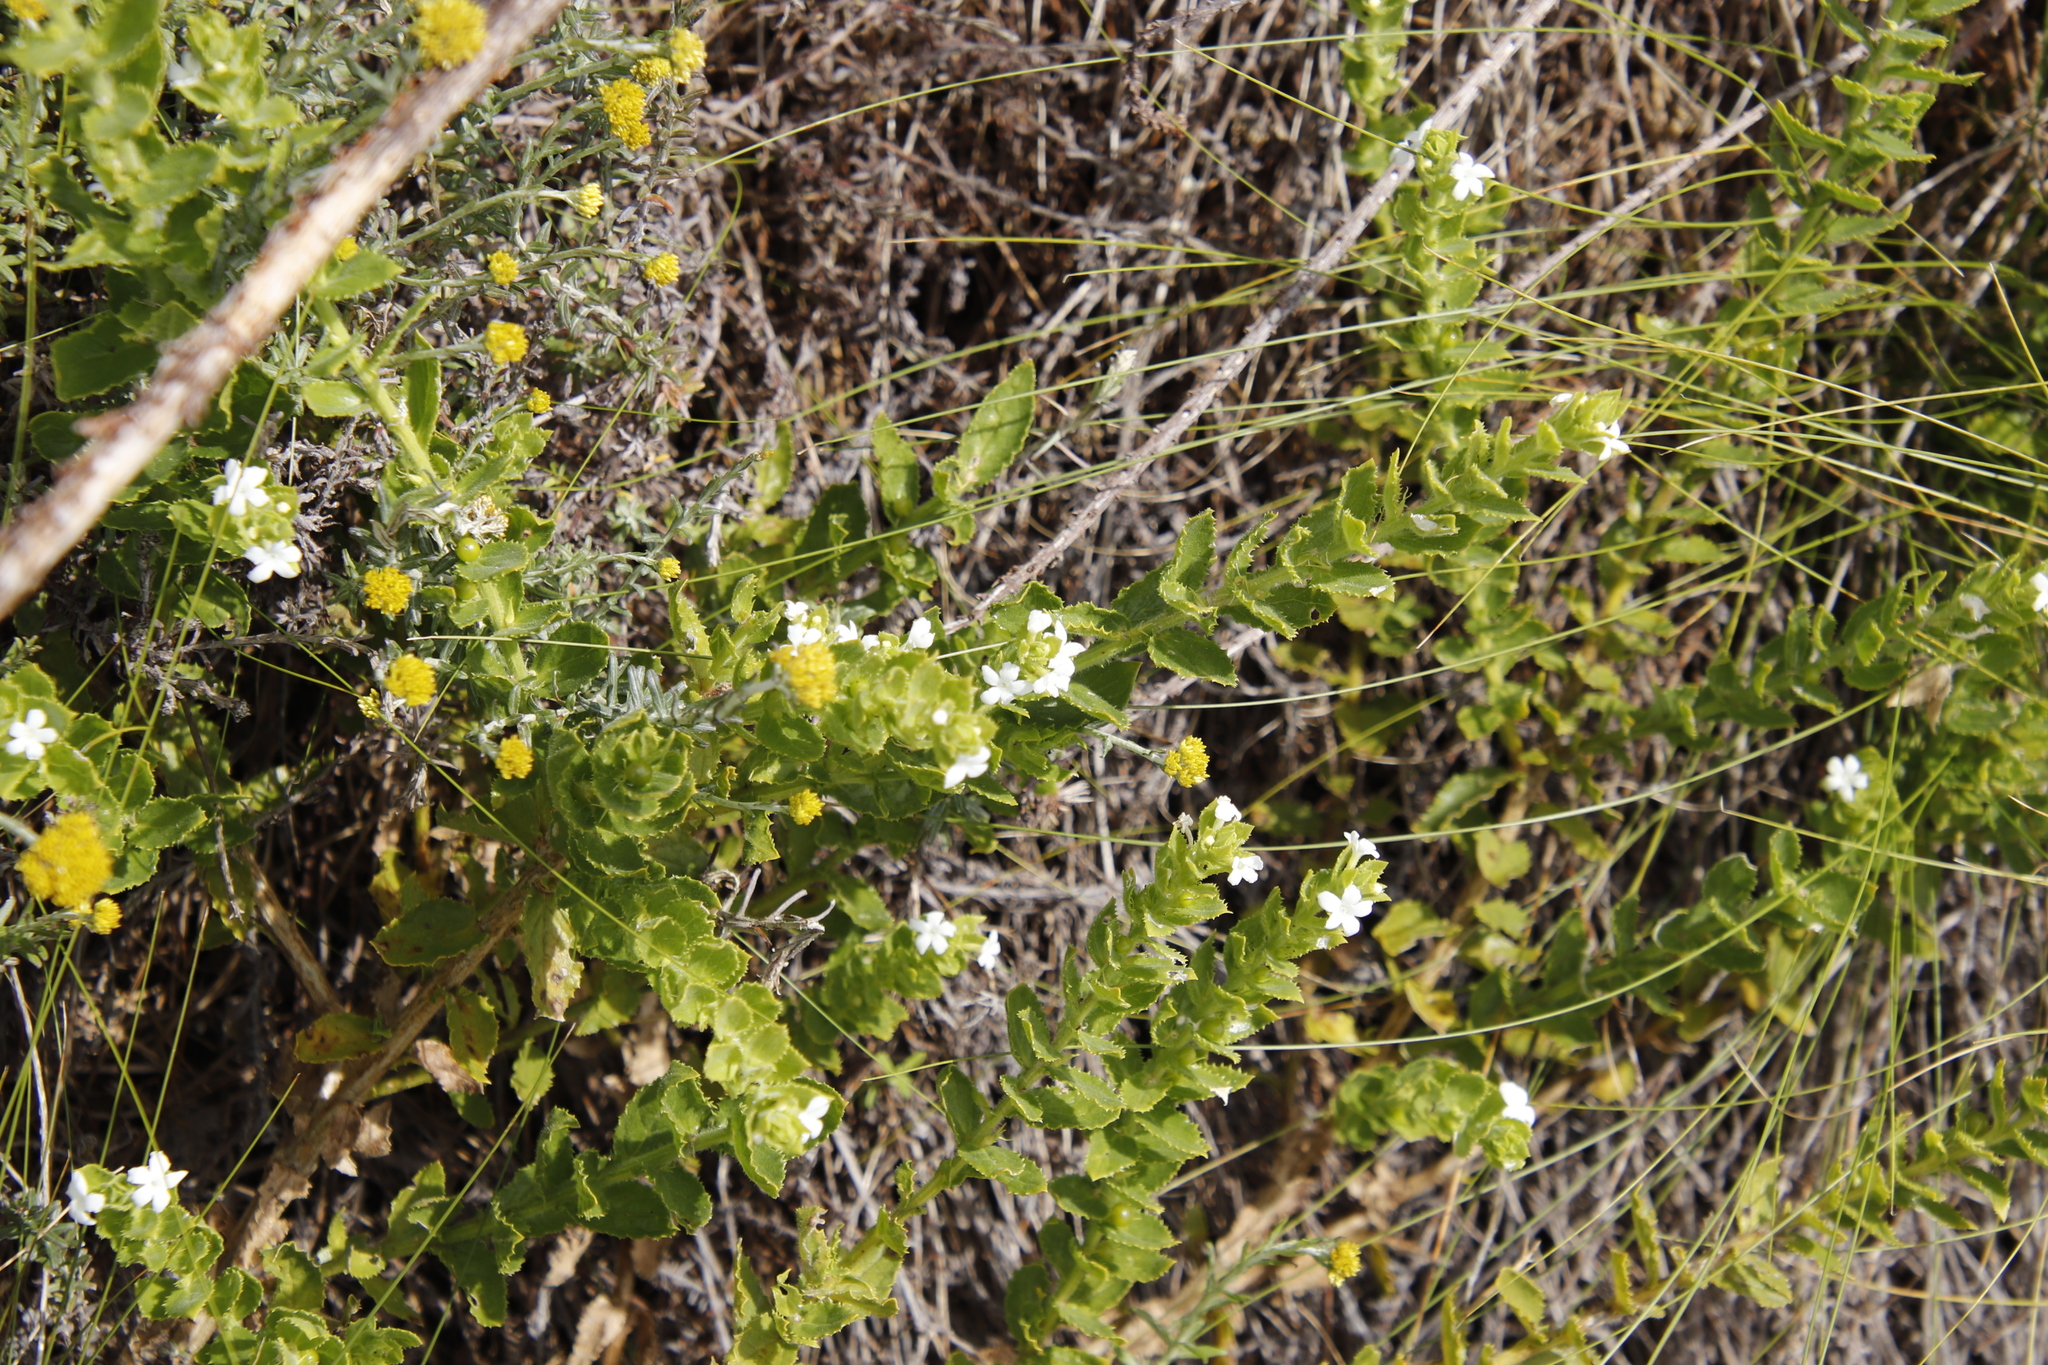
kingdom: Plantae
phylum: Tracheophyta
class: Magnoliopsida
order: Lamiales
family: Scrophulariaceae
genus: Oftia
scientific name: Oftia africana
